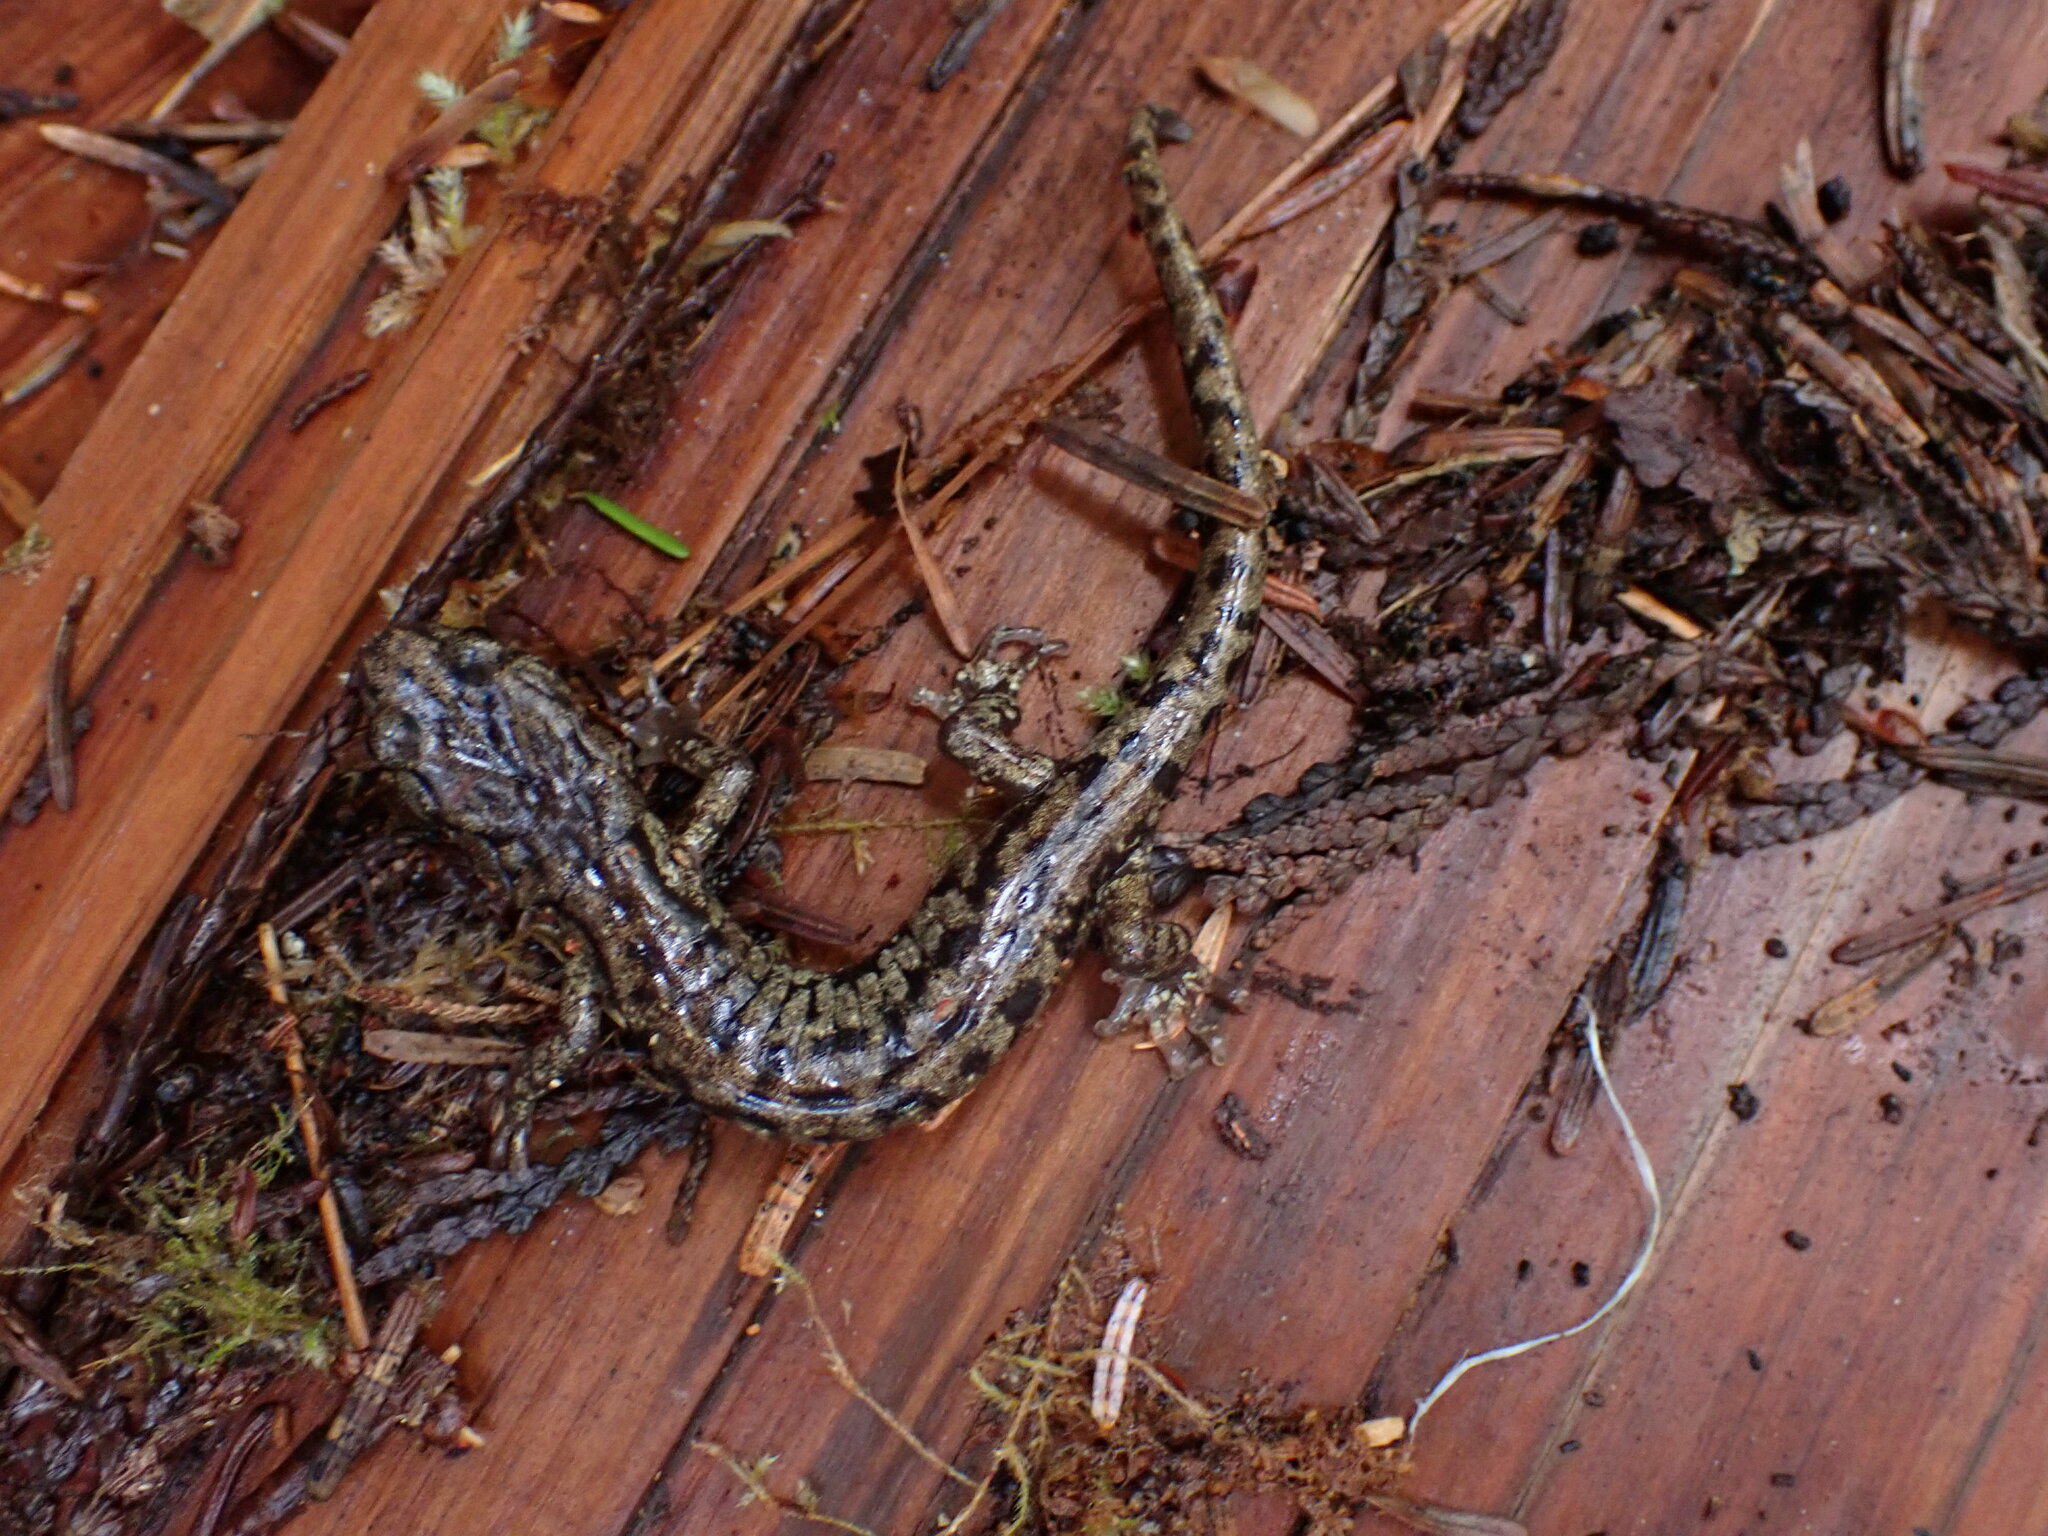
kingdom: Animalia
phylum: Chordata
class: Amphibia
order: Caudata
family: Plethodontidae
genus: Aneides
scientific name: Aneides vagrans
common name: Wandering salamander
